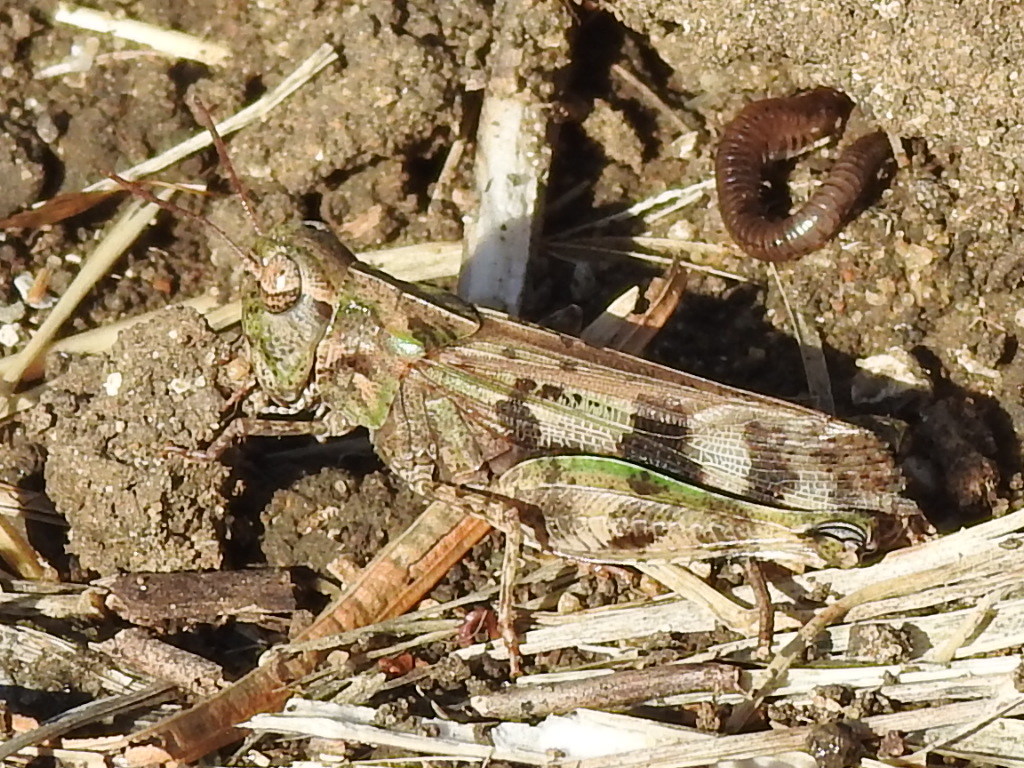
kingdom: Animalia
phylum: Arthropoda
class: Insecta
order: Orthoptera
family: Acrididae
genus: Encoptolophus
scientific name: Encoptolophus costalis
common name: Dusky grasshopper
